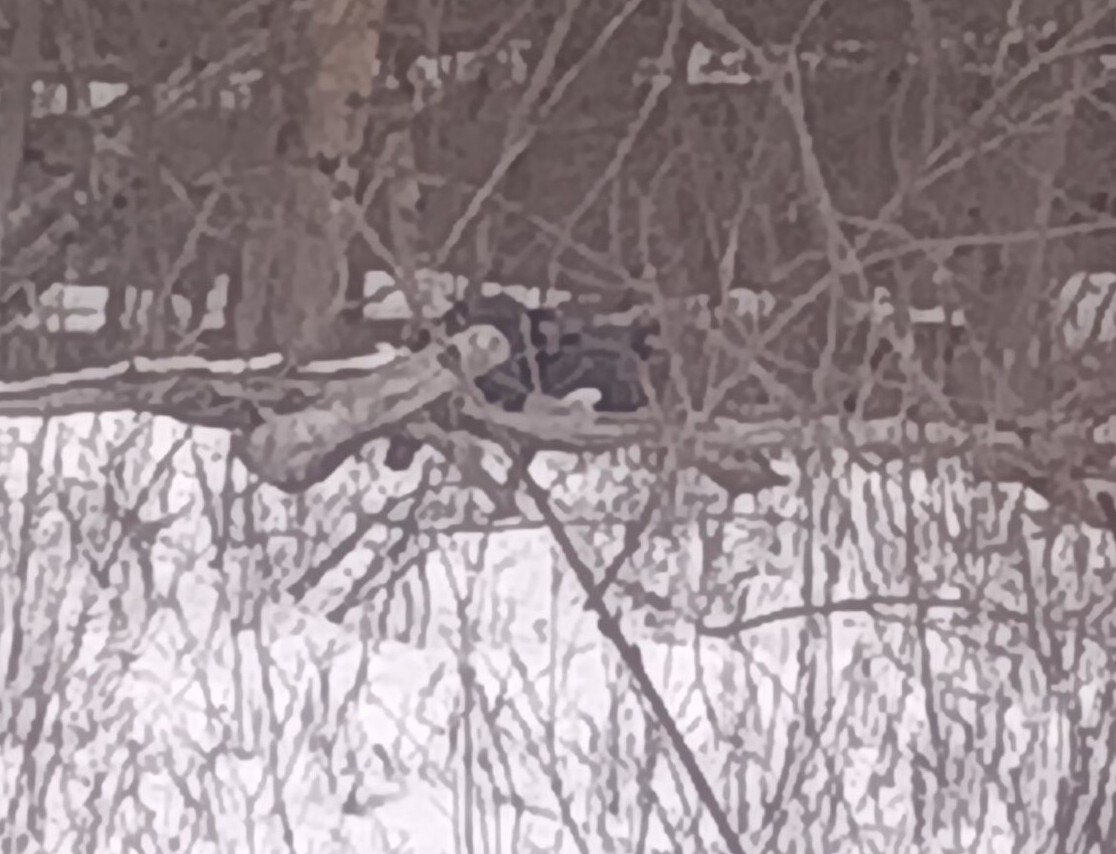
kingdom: Animalia
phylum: Chordata
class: Aves
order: Galliformes
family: Phasianidae
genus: Meleagris
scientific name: Meleagris gallopavo
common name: Wild turkey
